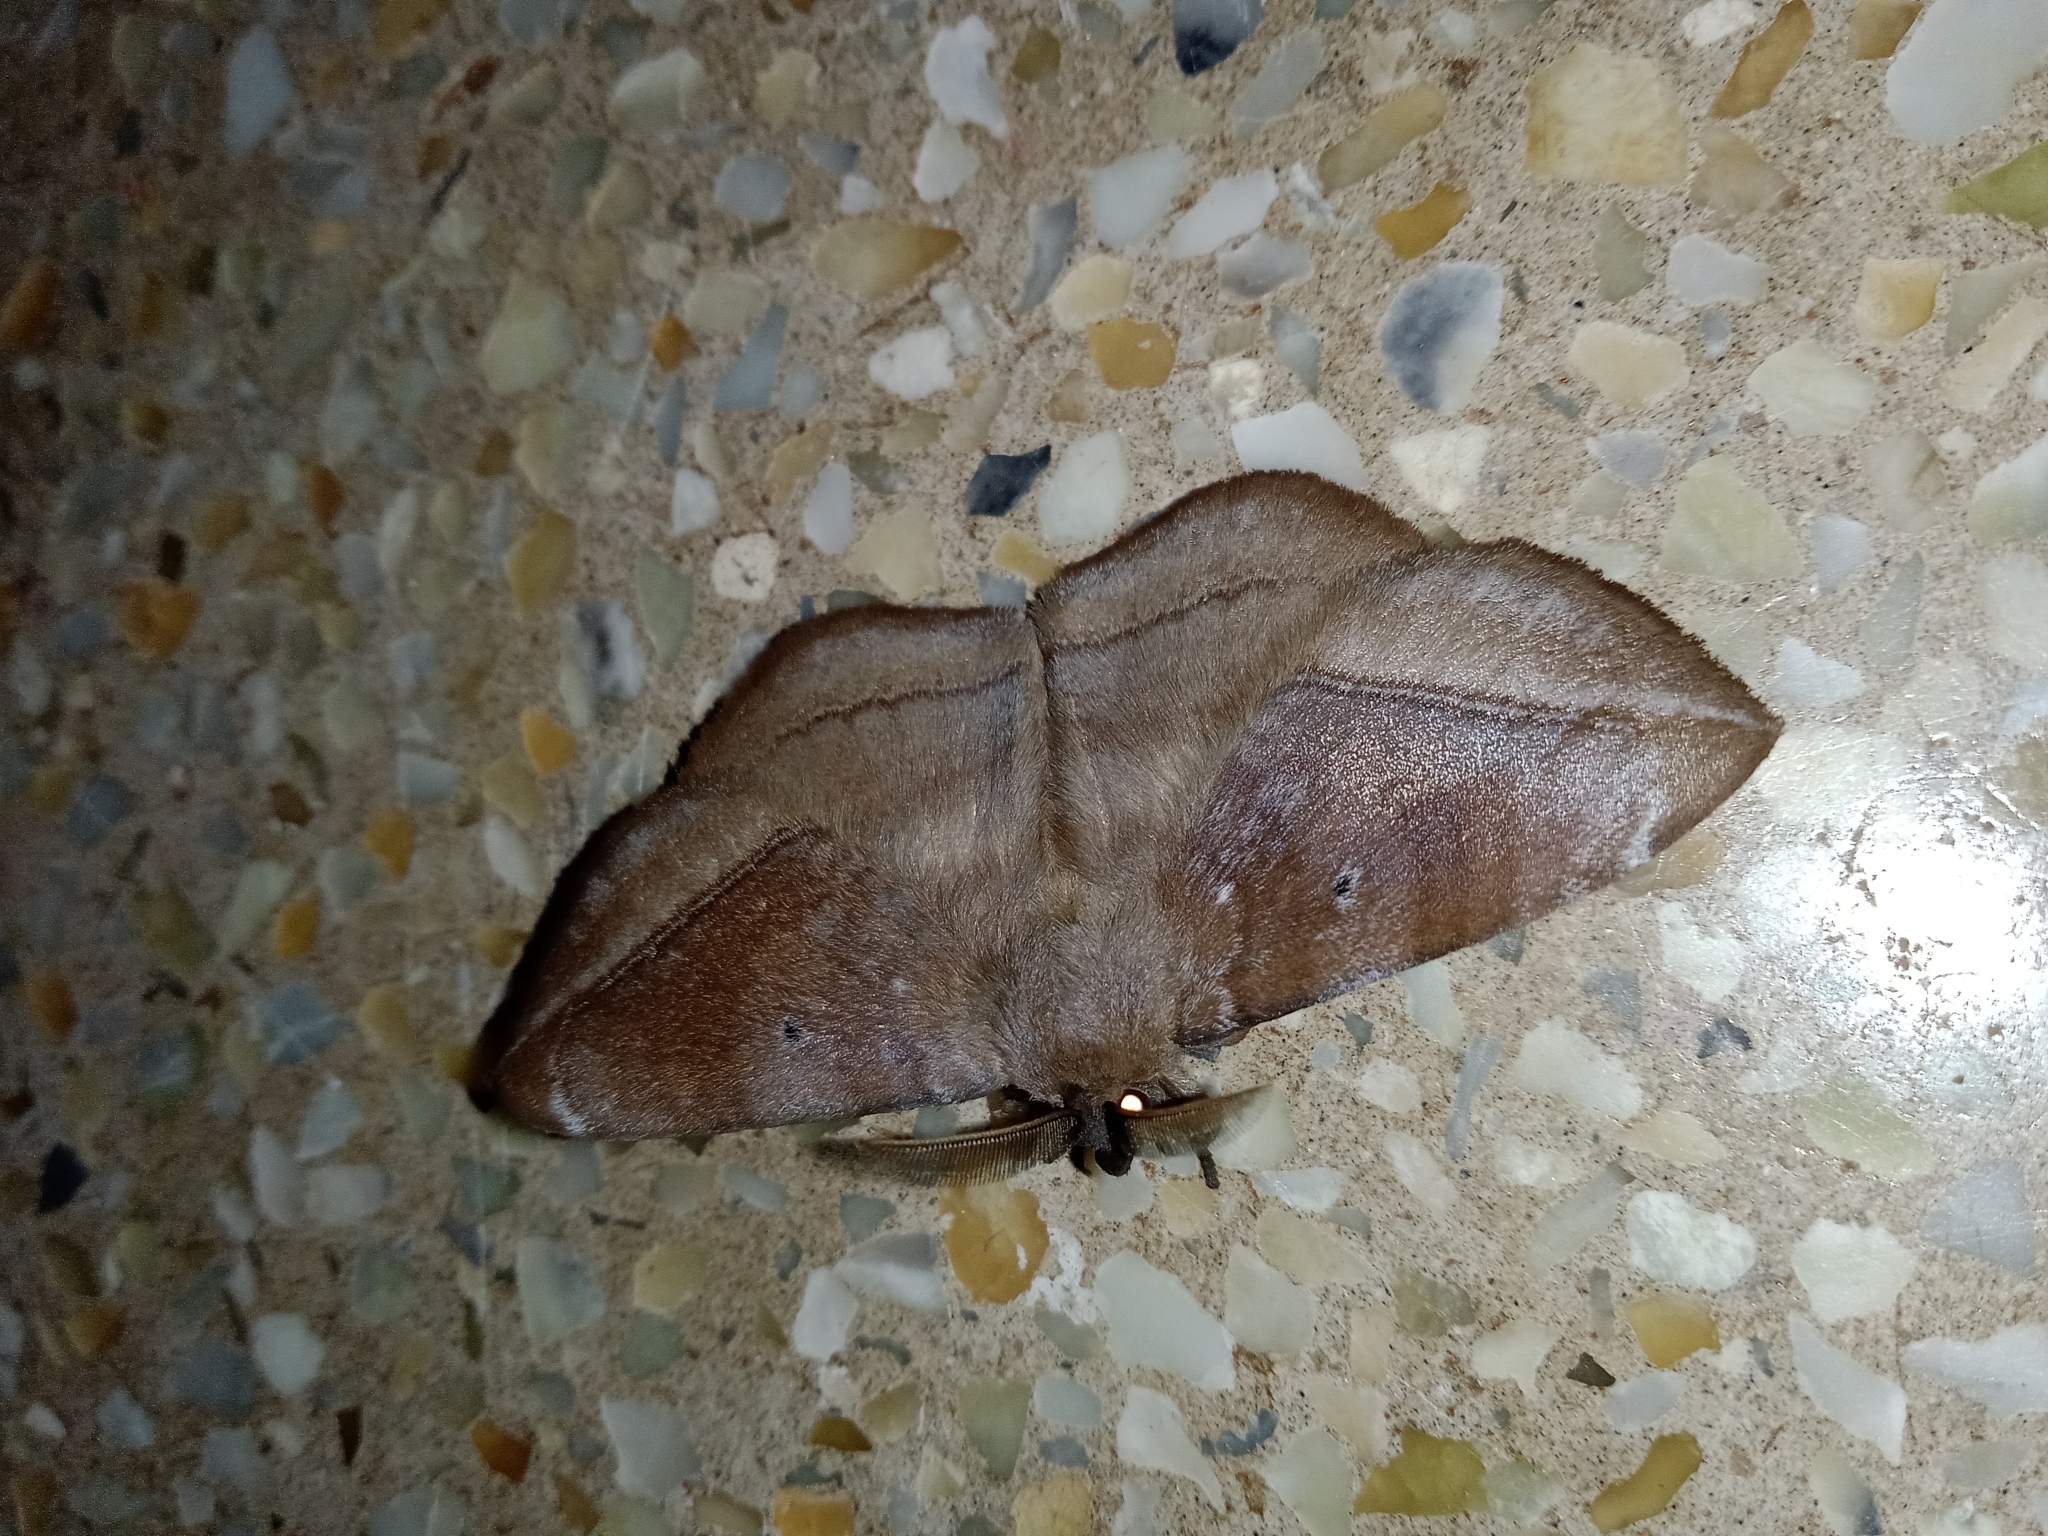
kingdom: Animalia
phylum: Arthropoda
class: Insecta
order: Lepidoptera
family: Eupterotidae
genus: Ganisa
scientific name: Ganisa postica
